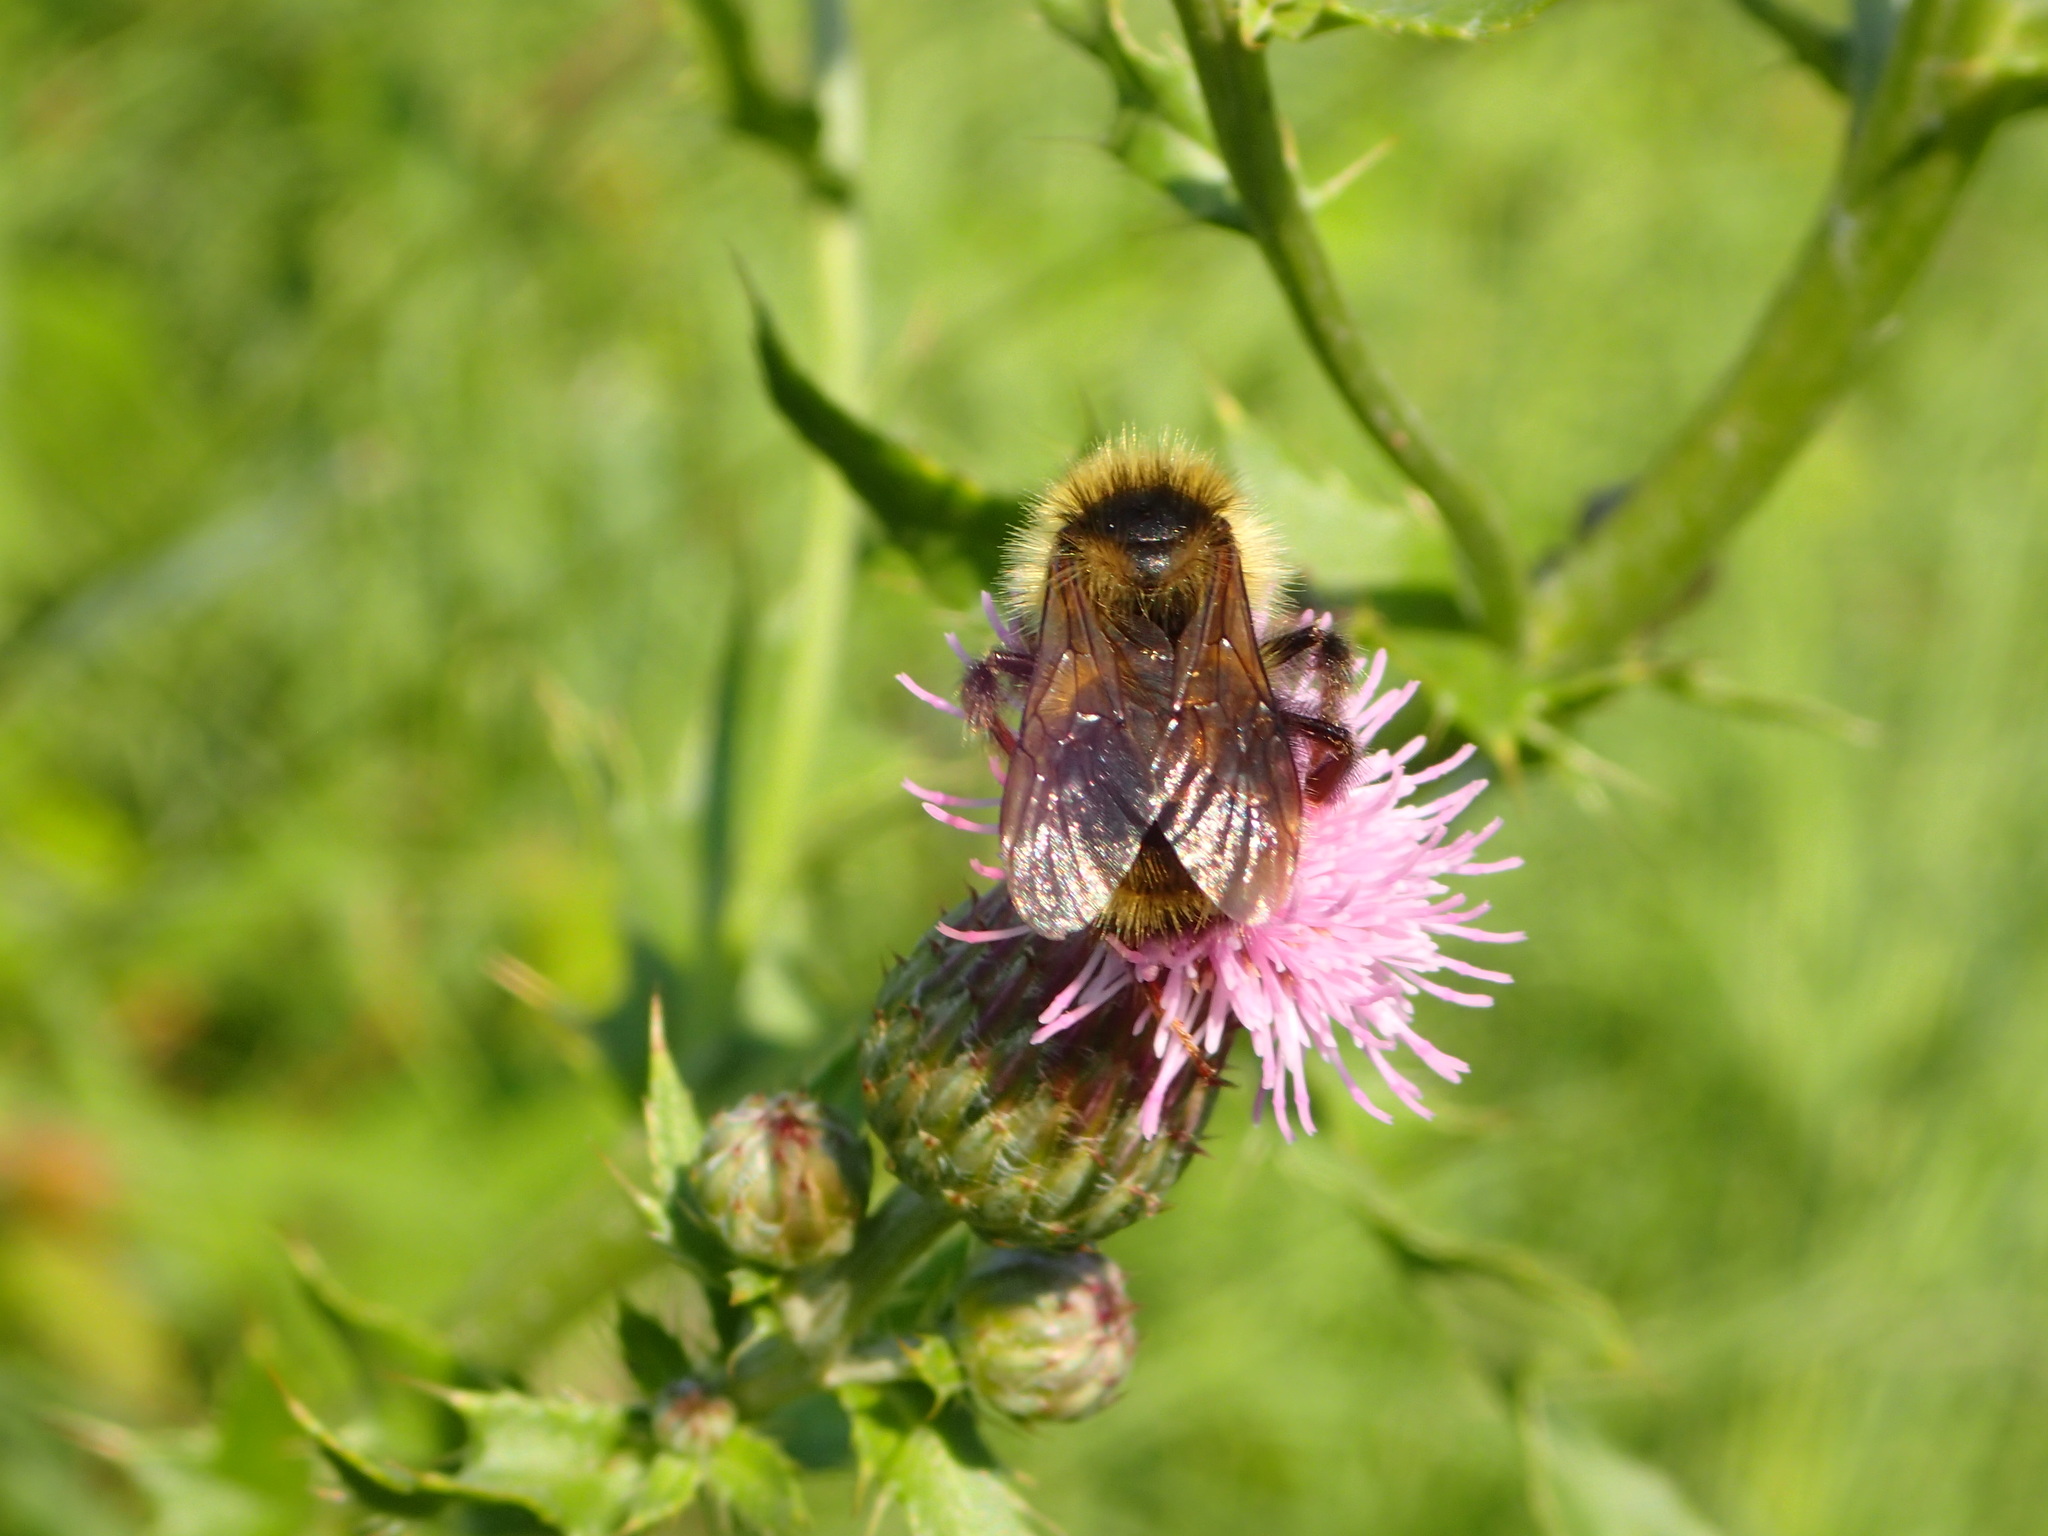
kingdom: Animalia
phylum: Arthropoda
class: Insecta
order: Hymenoptera
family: Apidae
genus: Bombus
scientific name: Bombus
